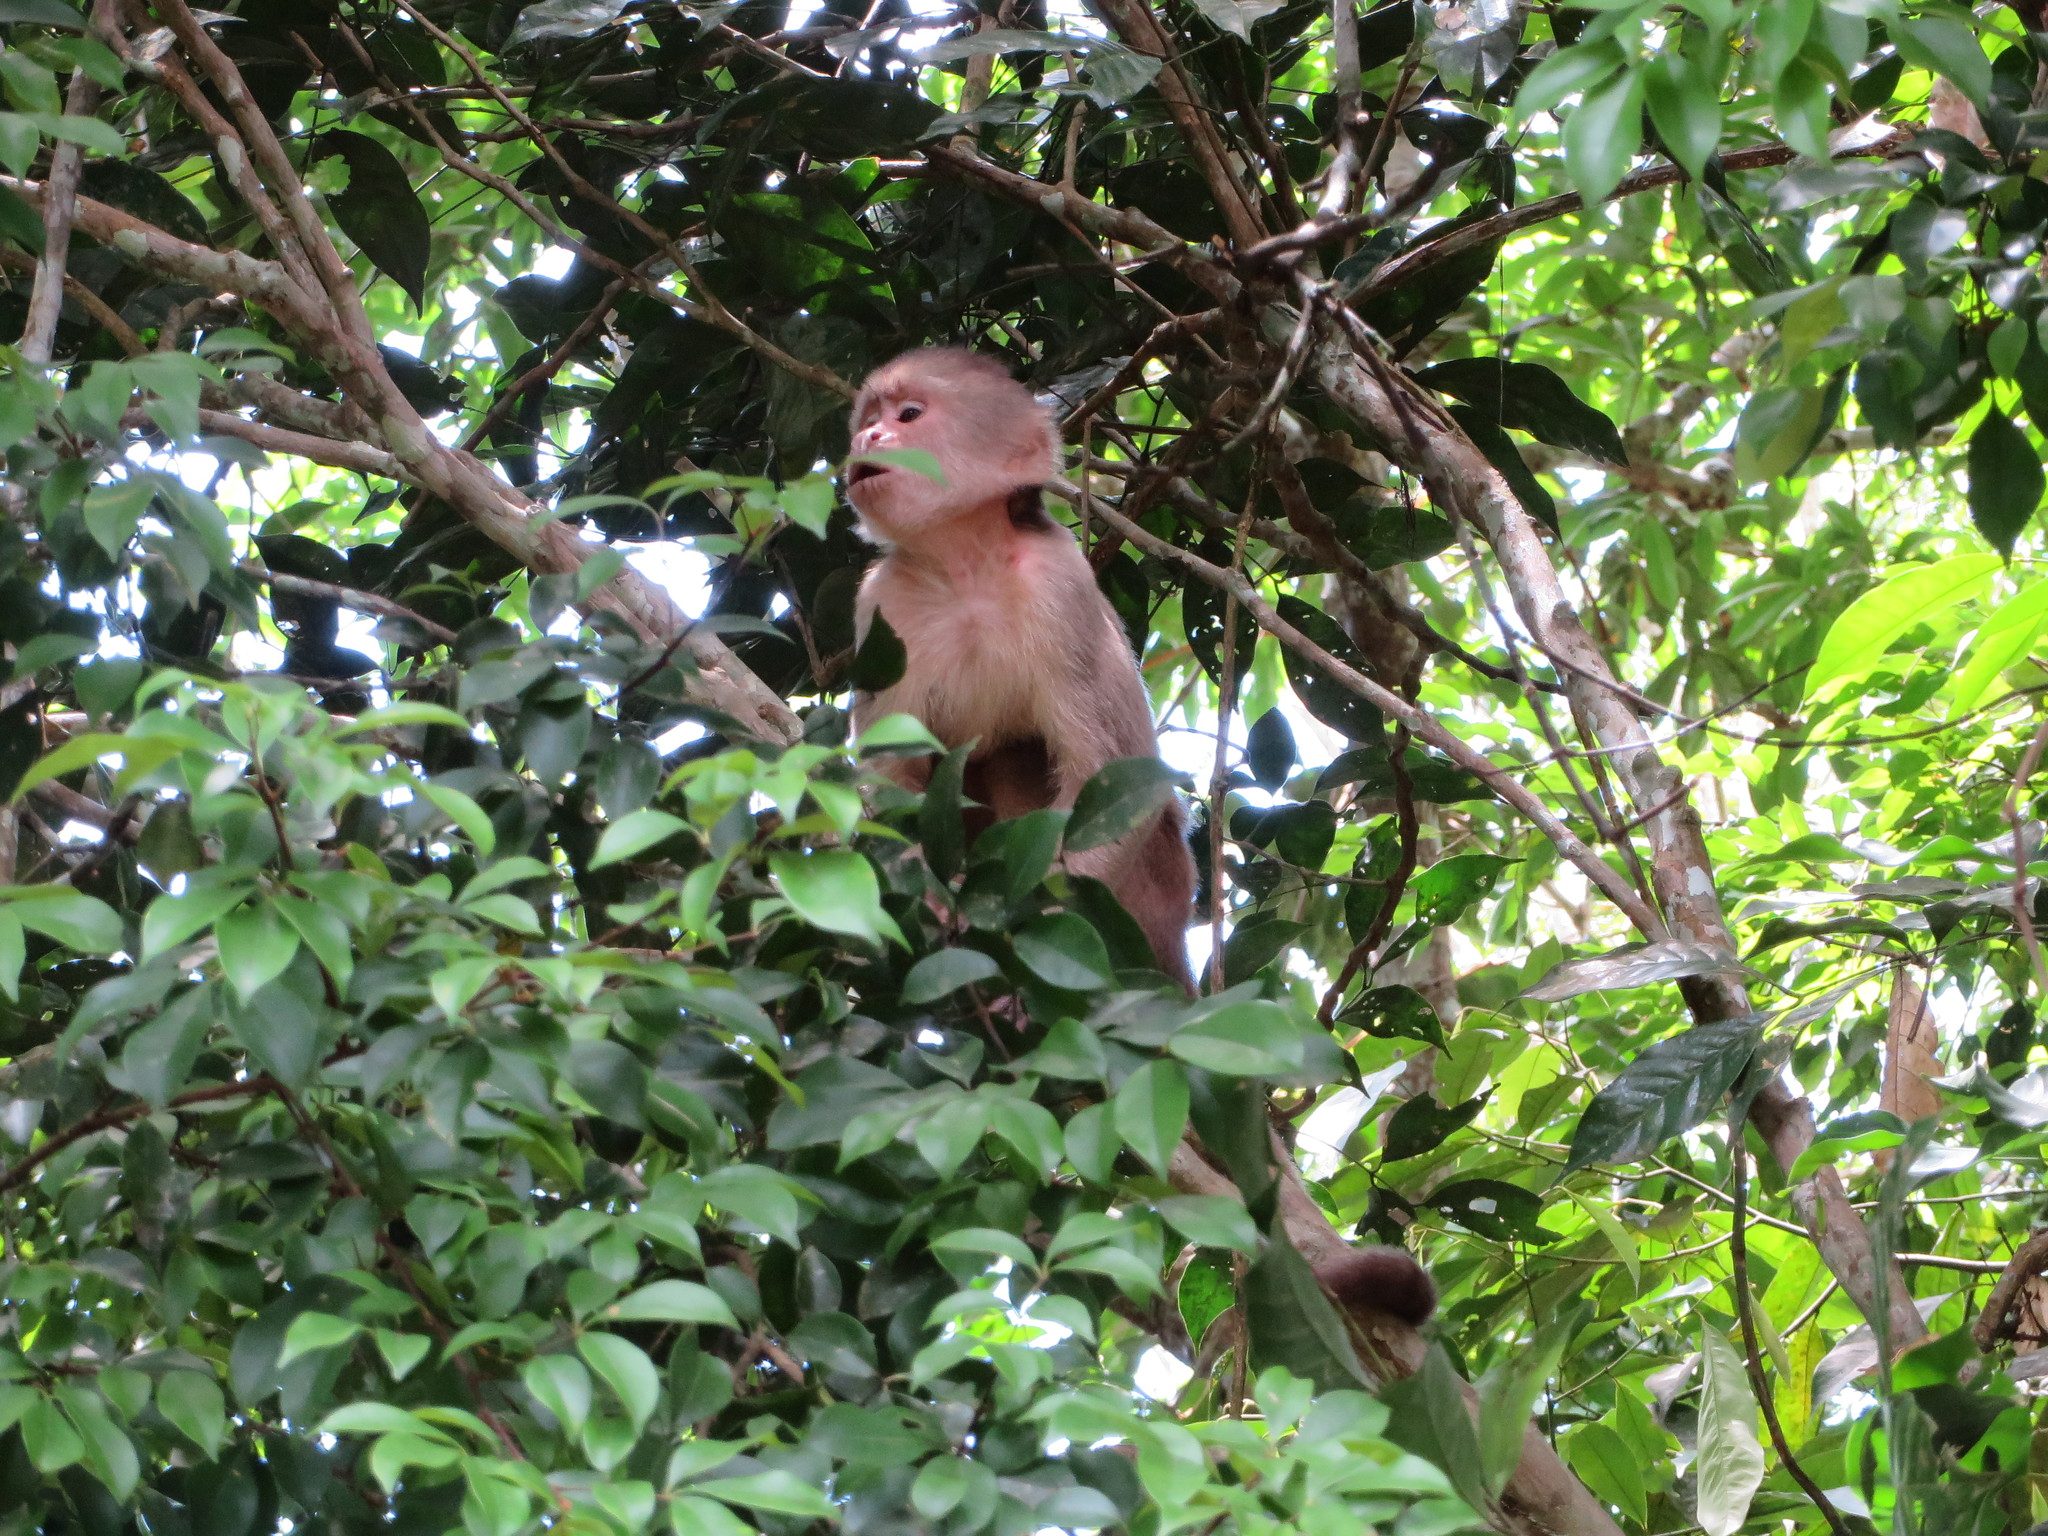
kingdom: Animalia
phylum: Chordata
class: Mammalia
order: Primates
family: Cebidae
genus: Cebus
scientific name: Cebus yuracus
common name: Peruvian white-fronted capuchin
